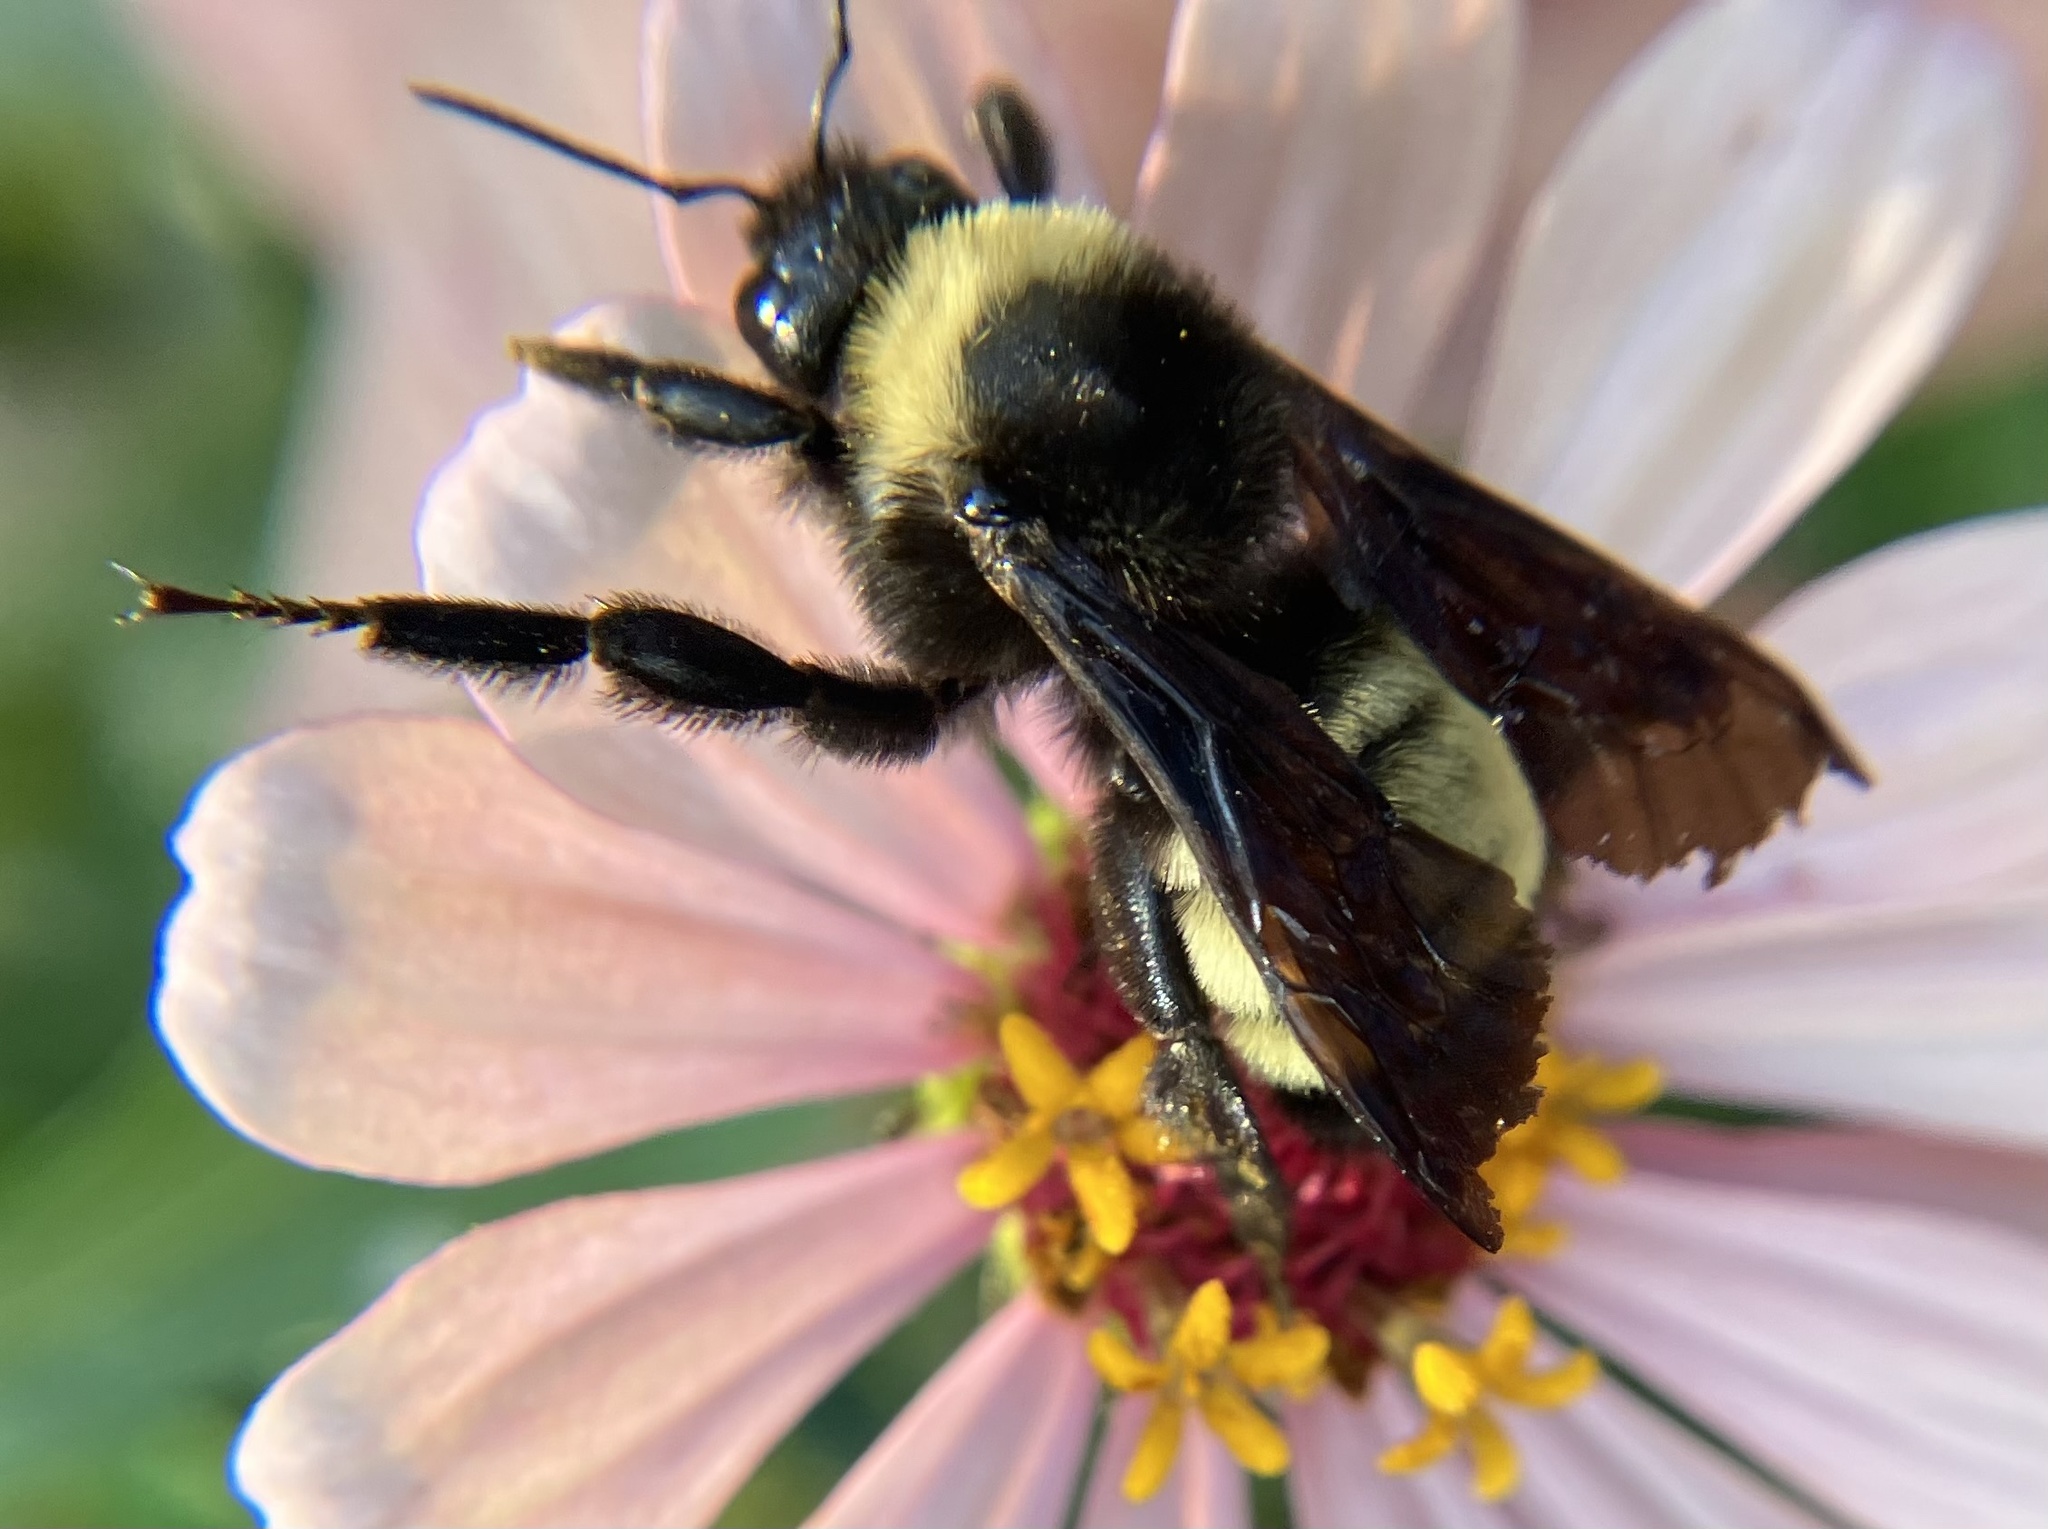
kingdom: Animalia
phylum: Arthropoda
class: Insecta
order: Hymenoptera
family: Apidae
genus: Bombus
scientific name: Bombus pensylvanicus
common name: Bumble bee
